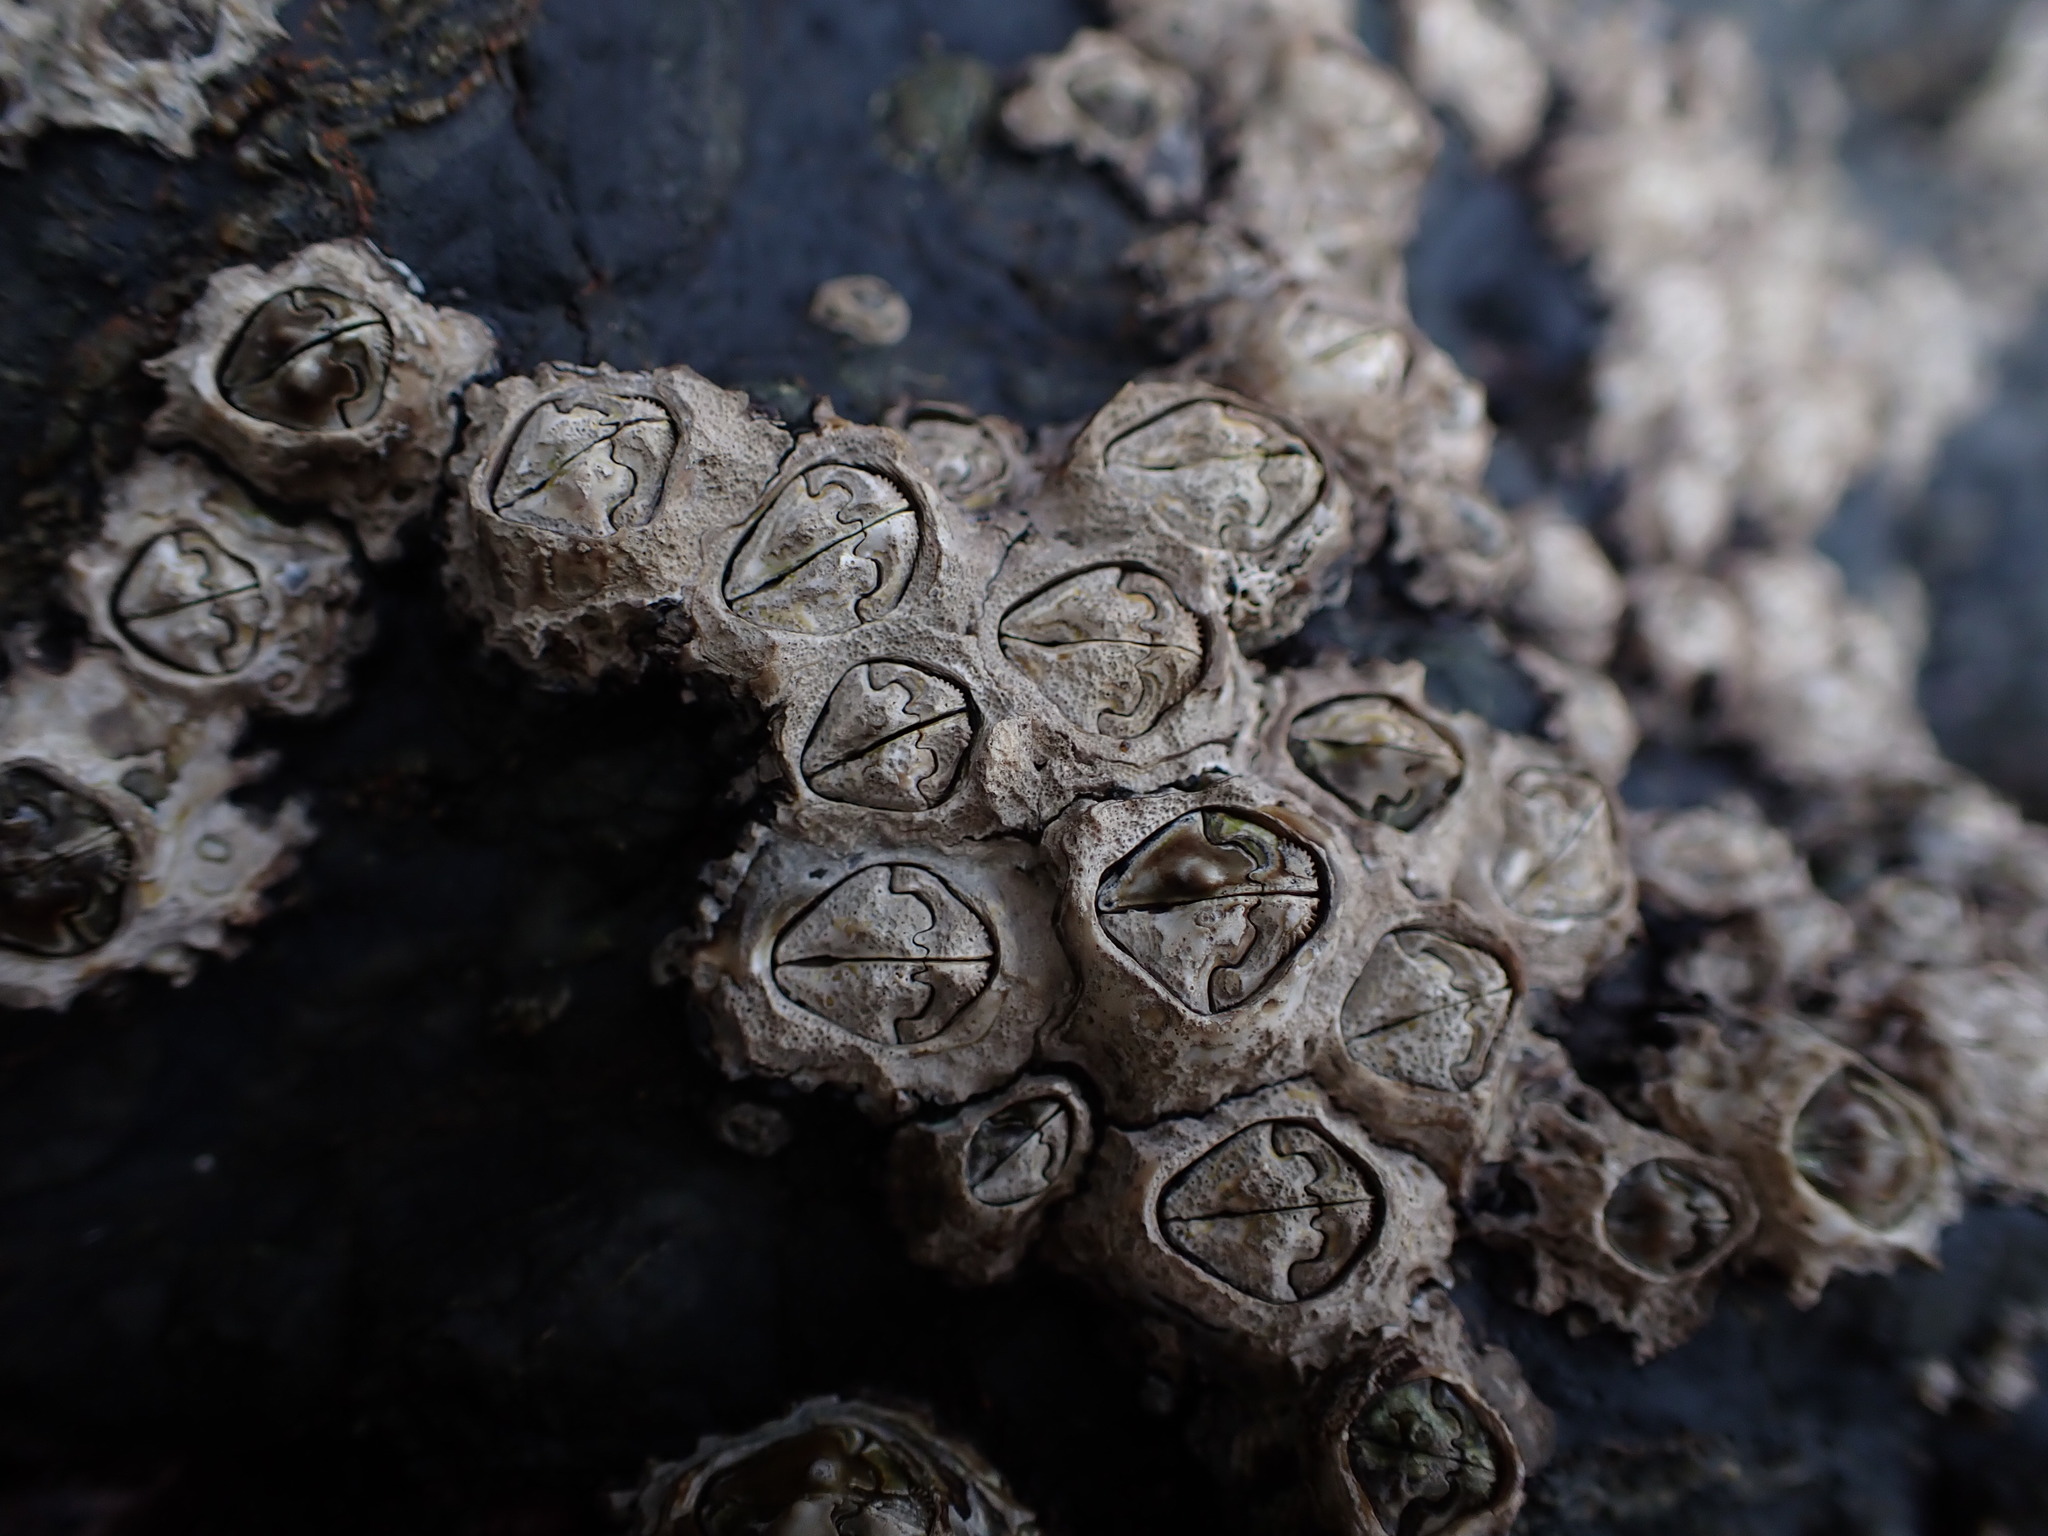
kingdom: Animalia
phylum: Arthropoda
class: Maxillopoda
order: Sessilia
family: Chthamalidae
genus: Chamaesipho
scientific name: Chamaesipho brunnea
